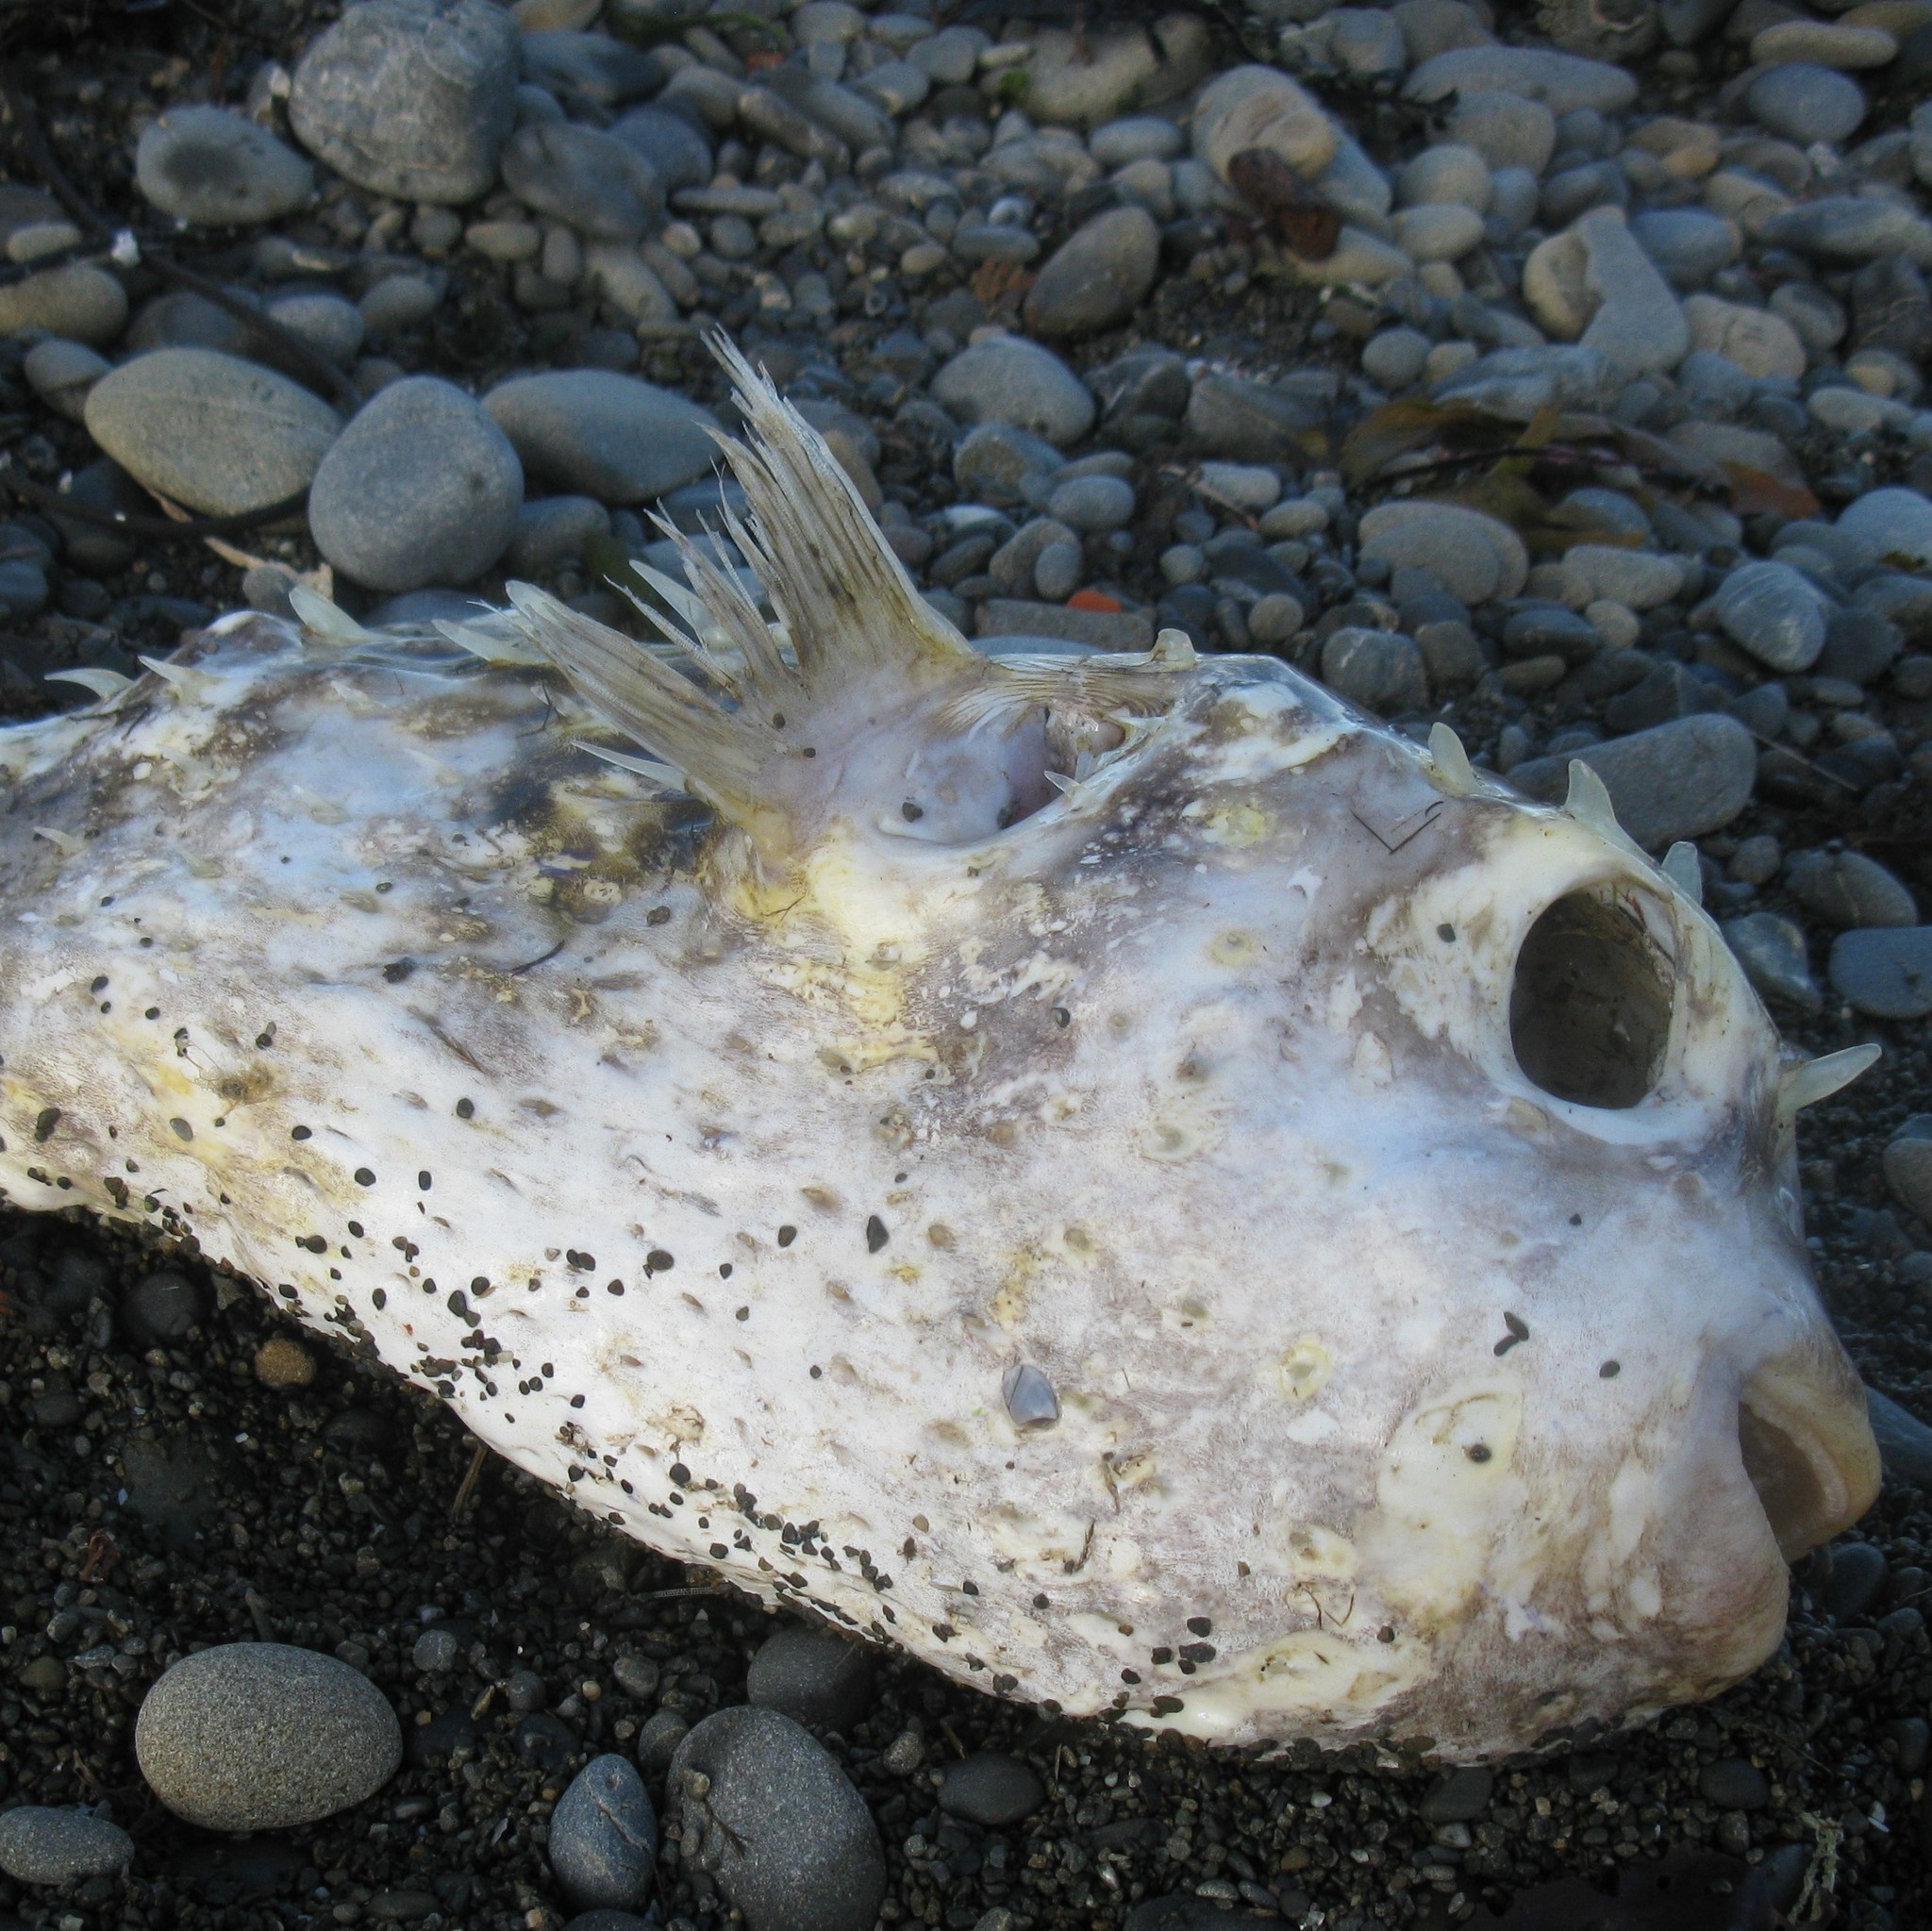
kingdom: Animalia
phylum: Chordata
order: Tetraodontiformes
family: Diodontidae
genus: Allomycterus
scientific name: Allomycterus pilatus
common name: No common name
